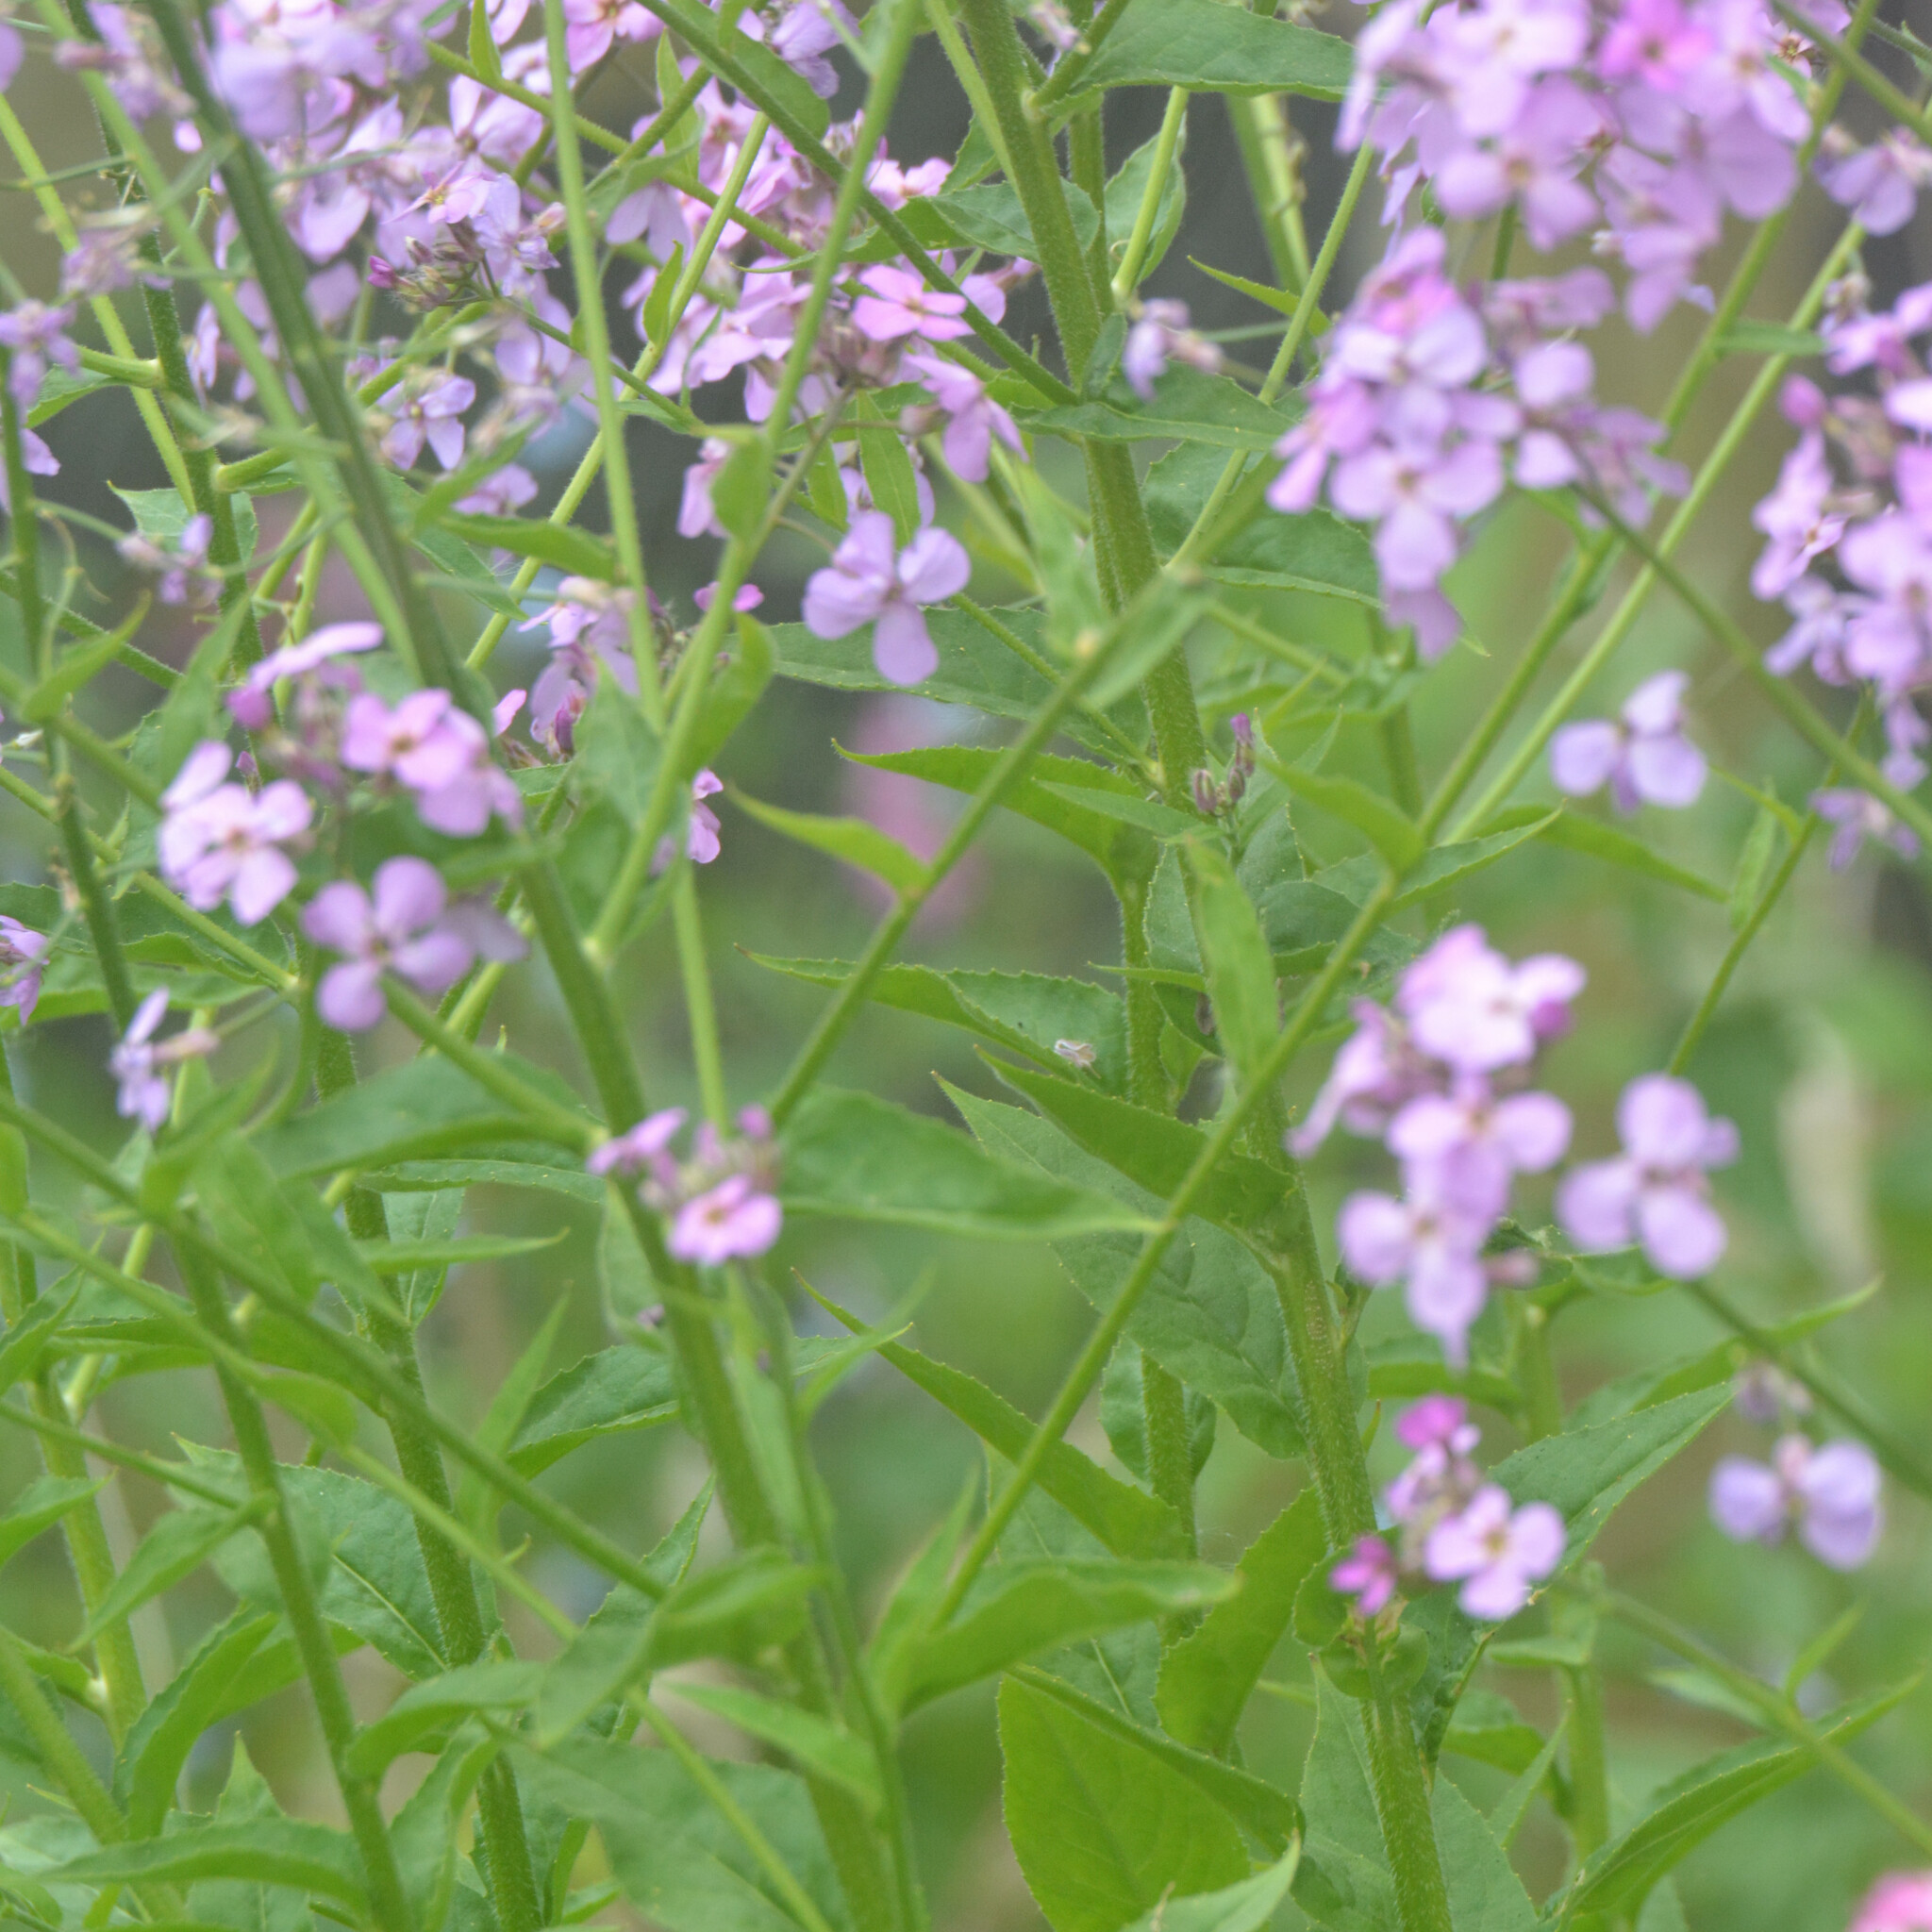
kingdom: Plantae
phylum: Tracheophyta
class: Magnoliopsida
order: Brassicales
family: Brassicaceae
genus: Hesperis
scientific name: Hesperis matronalis
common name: Dame's-violet
